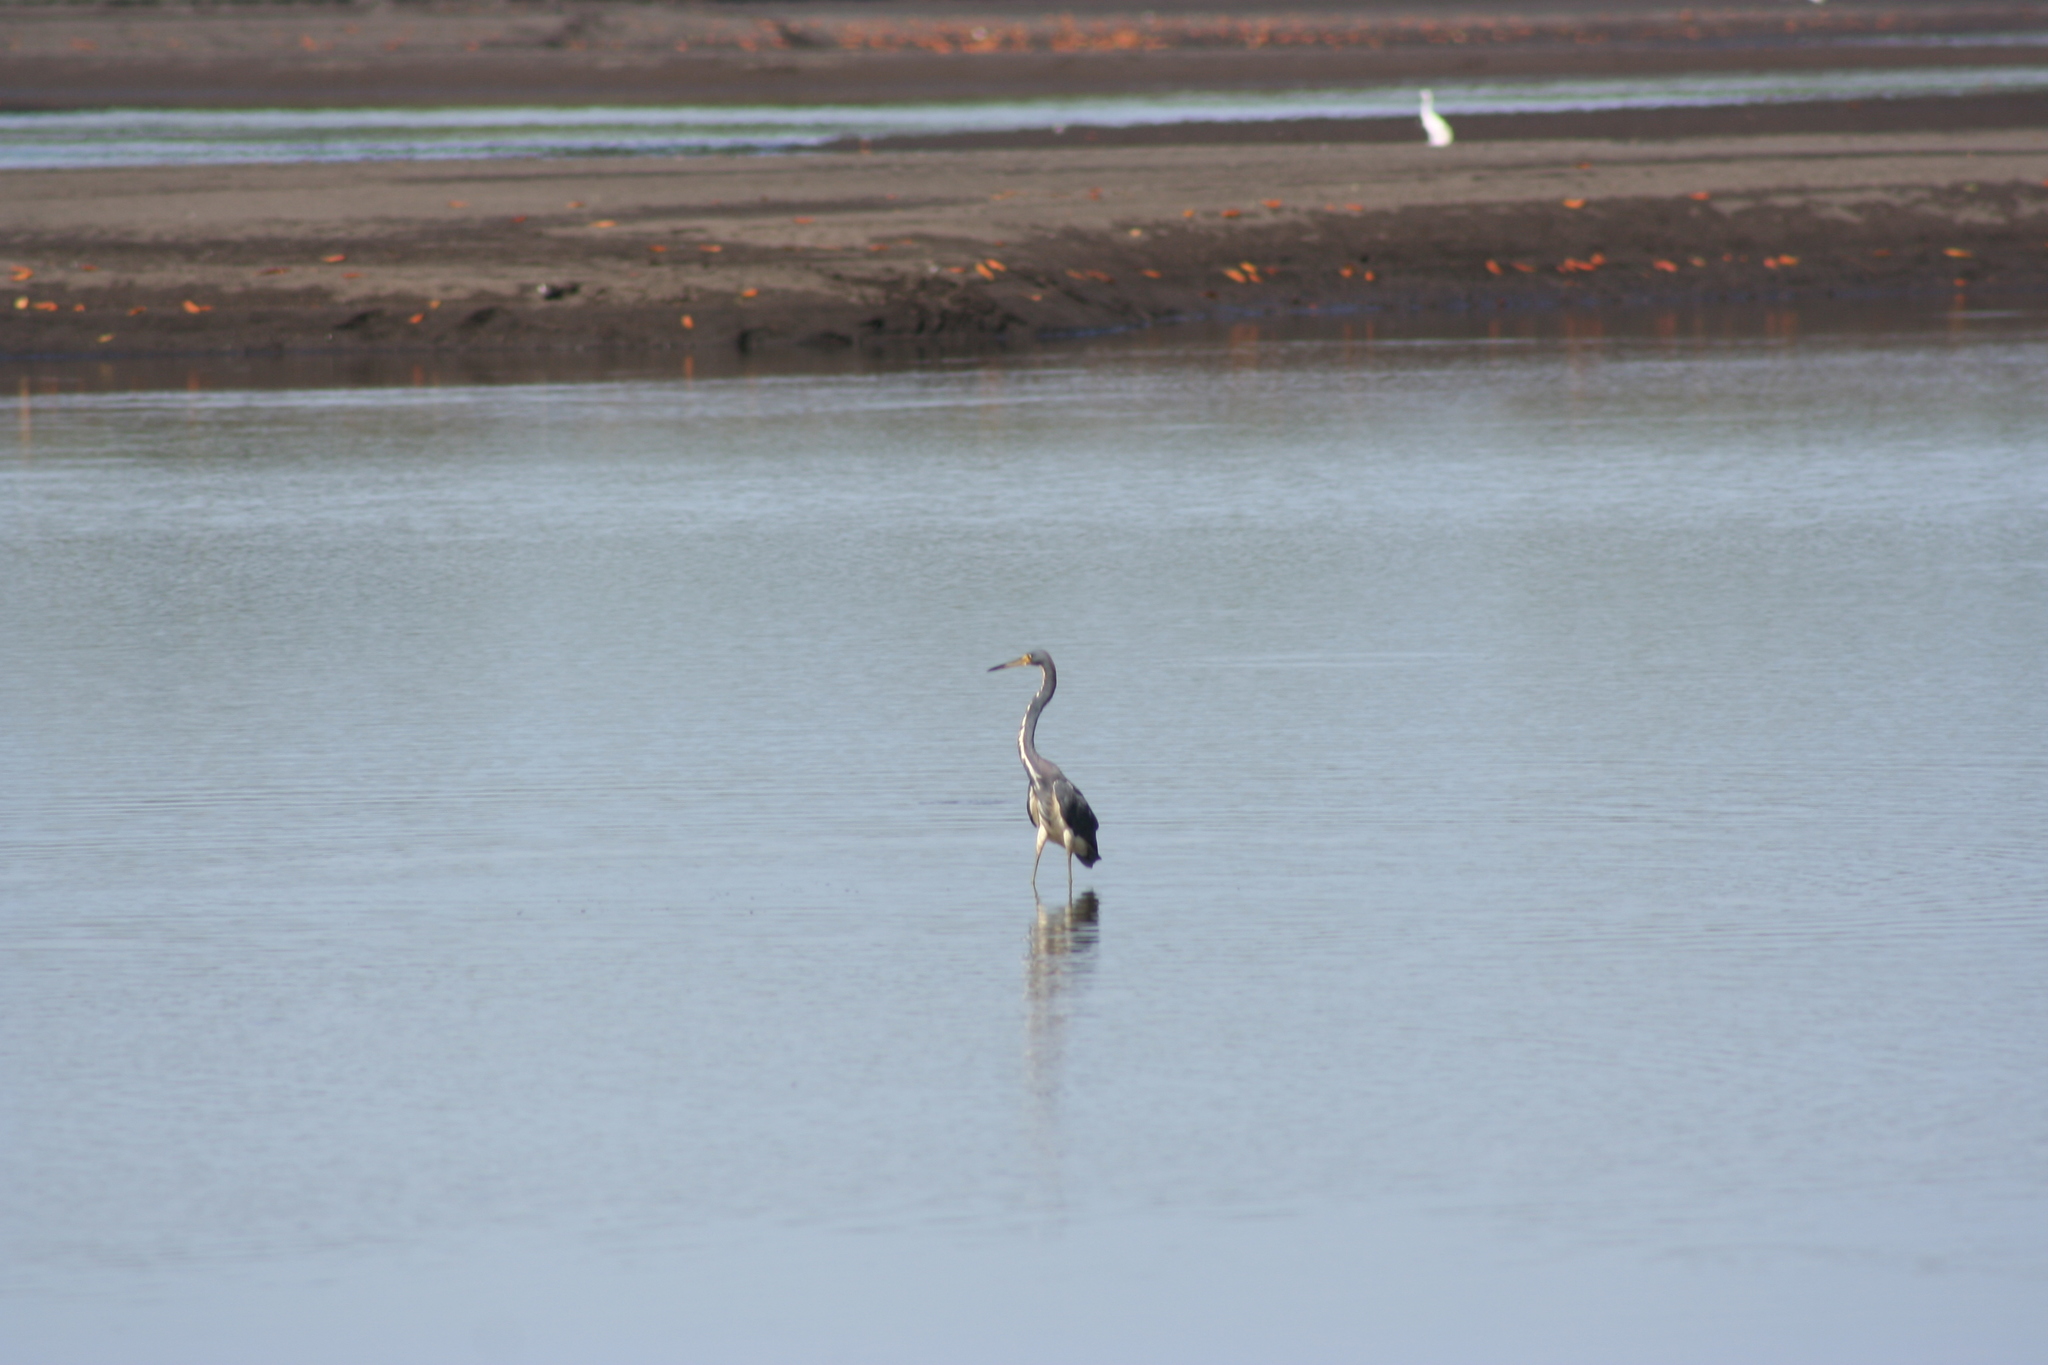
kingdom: Animalia
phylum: Chordata
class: Aves
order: Pelecaniformes
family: Ardeidae
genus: Egretta
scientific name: Egretta tricolor
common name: Tricolored heron
